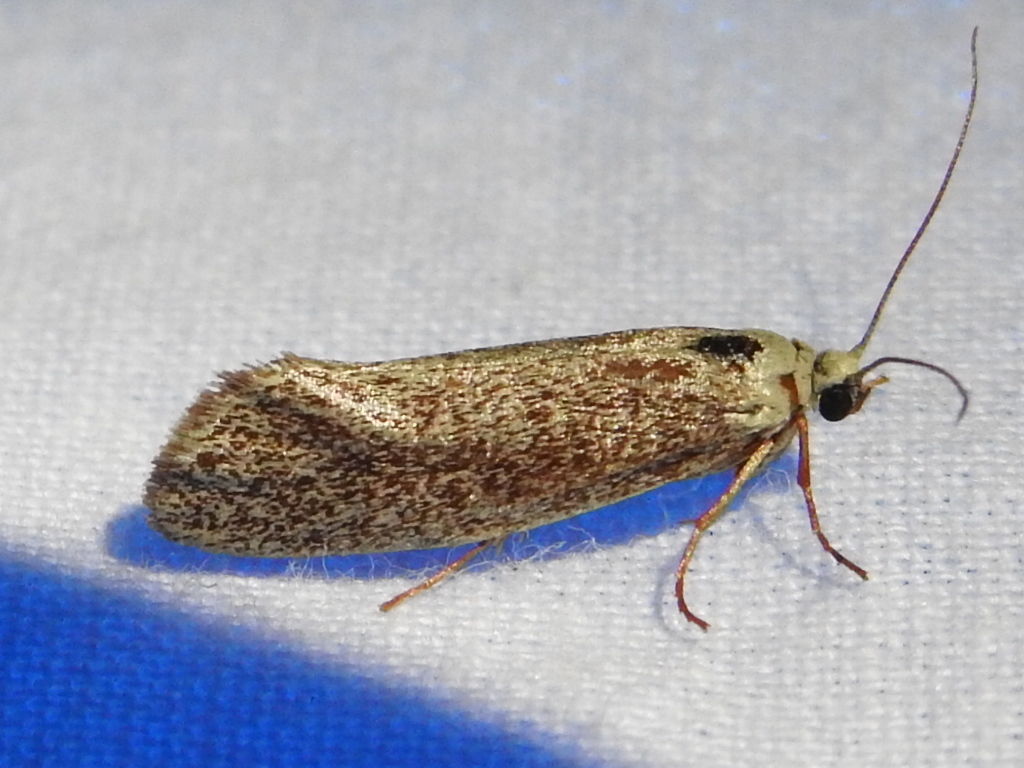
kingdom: Animalia
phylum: Arthropoda
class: Insecta
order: Lepidoptera
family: Lacturidae
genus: Lactura
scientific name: Lactura
